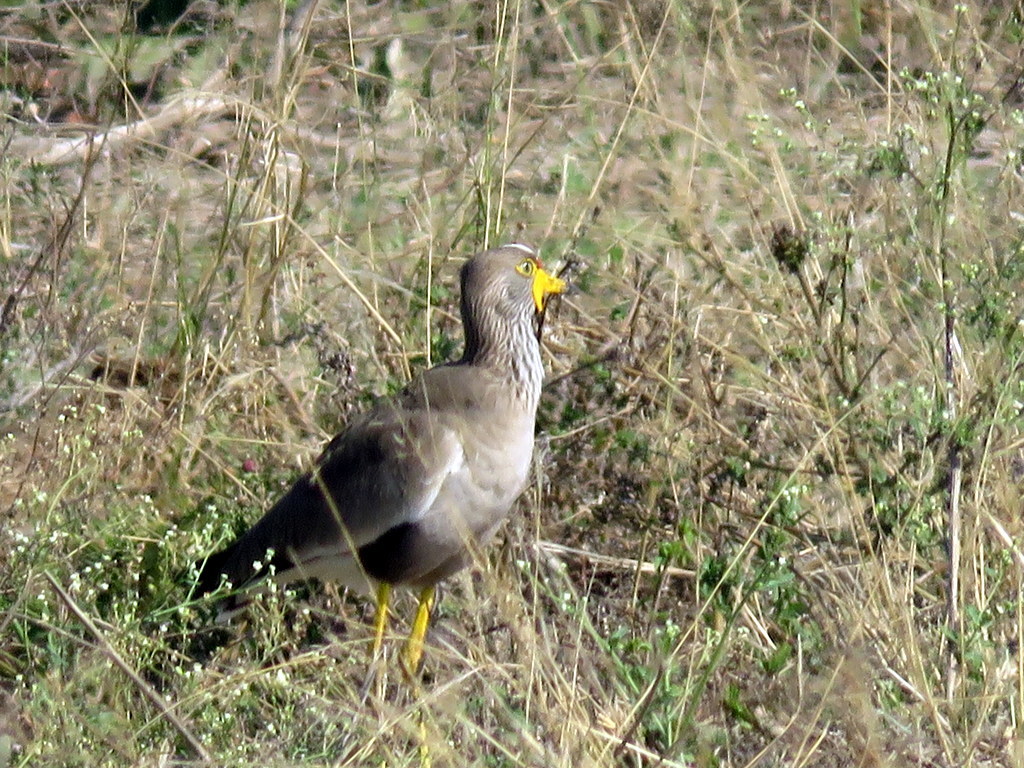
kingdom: Animalia
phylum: Chordata
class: Aves
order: Charadriiformes
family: Charadriidae
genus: Vanellus
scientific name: Vanellus senegallus
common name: African wattled lapwing
